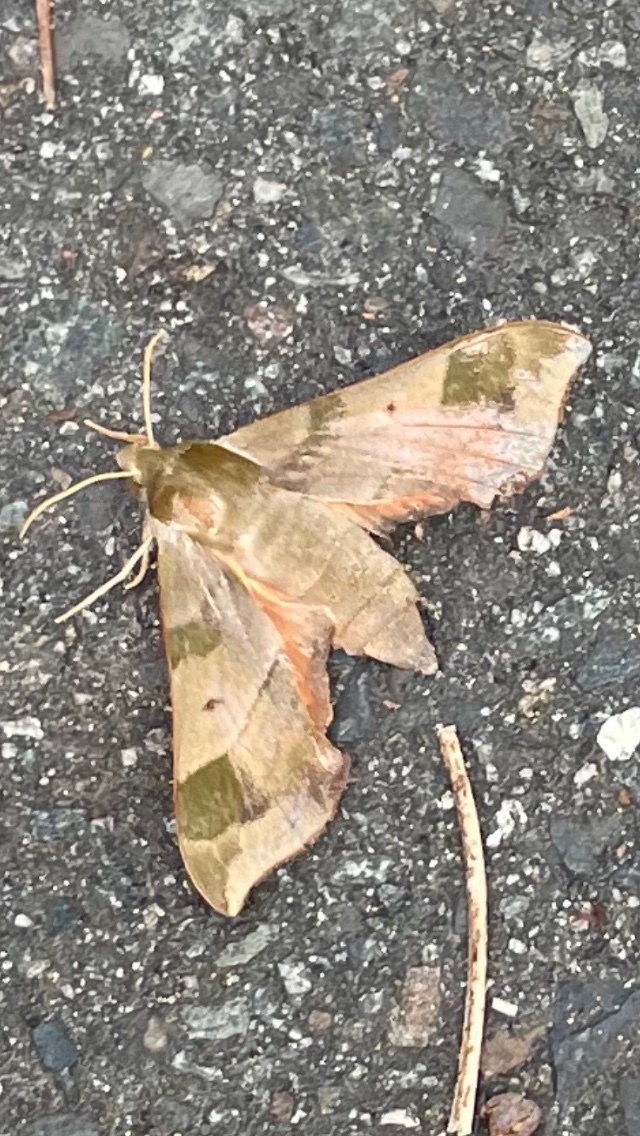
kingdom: Animalia
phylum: Arthropoda
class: Insecta
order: Lepidoptera
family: Sphingidae
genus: Darapsa
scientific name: Darapsa myron
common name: Hog sphinx
